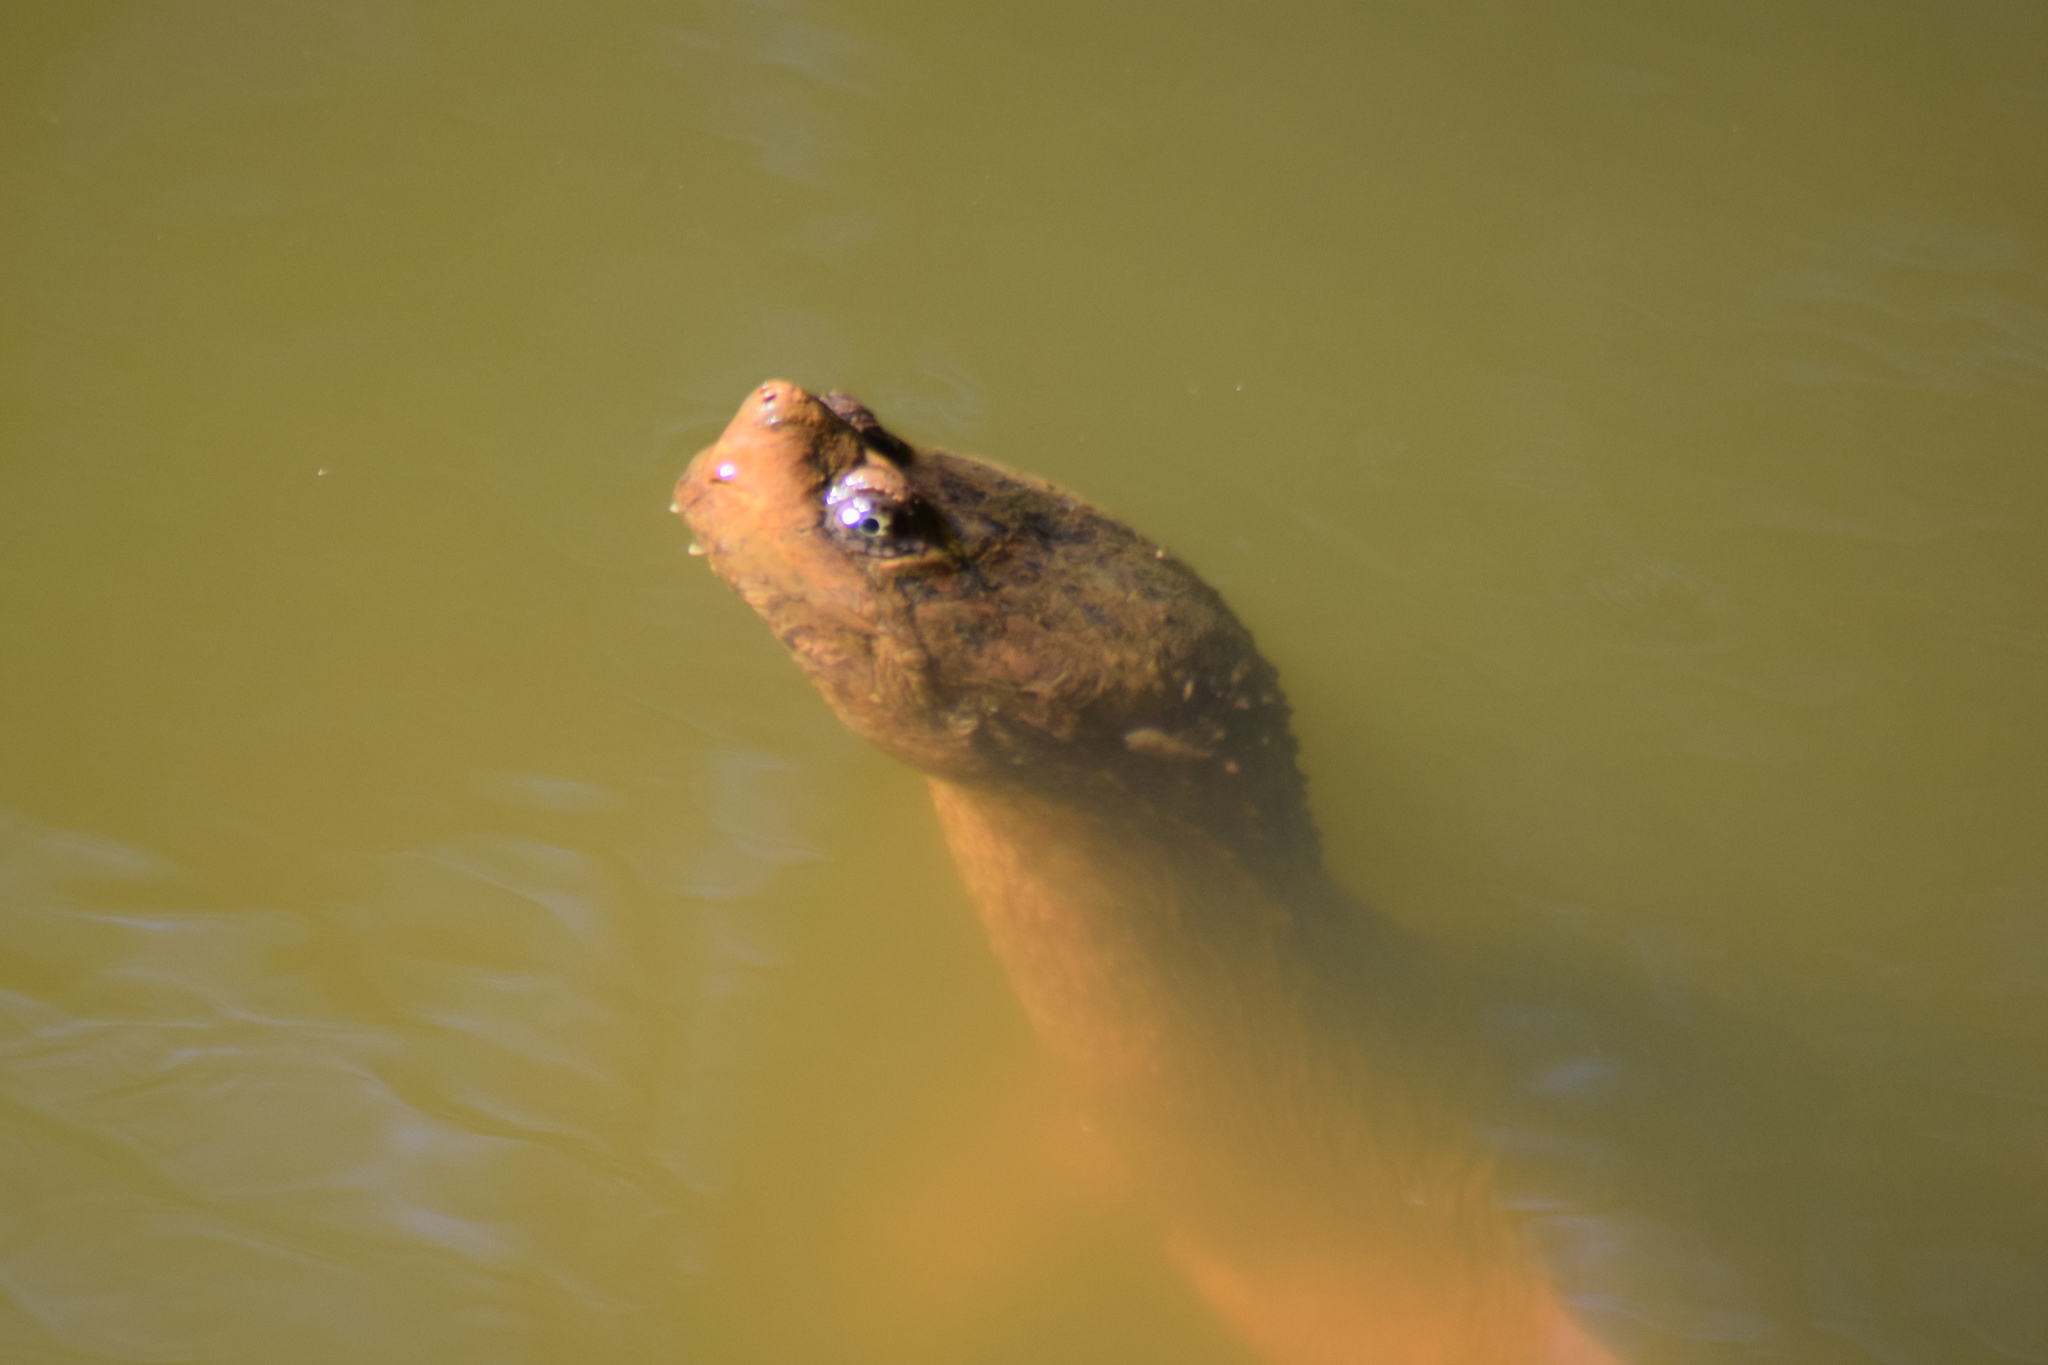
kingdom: Animalia
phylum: Chordata
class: Testudines
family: Chelydridae
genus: Chelydra
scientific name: Chelydra serpentina
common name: Common snapping turtle
